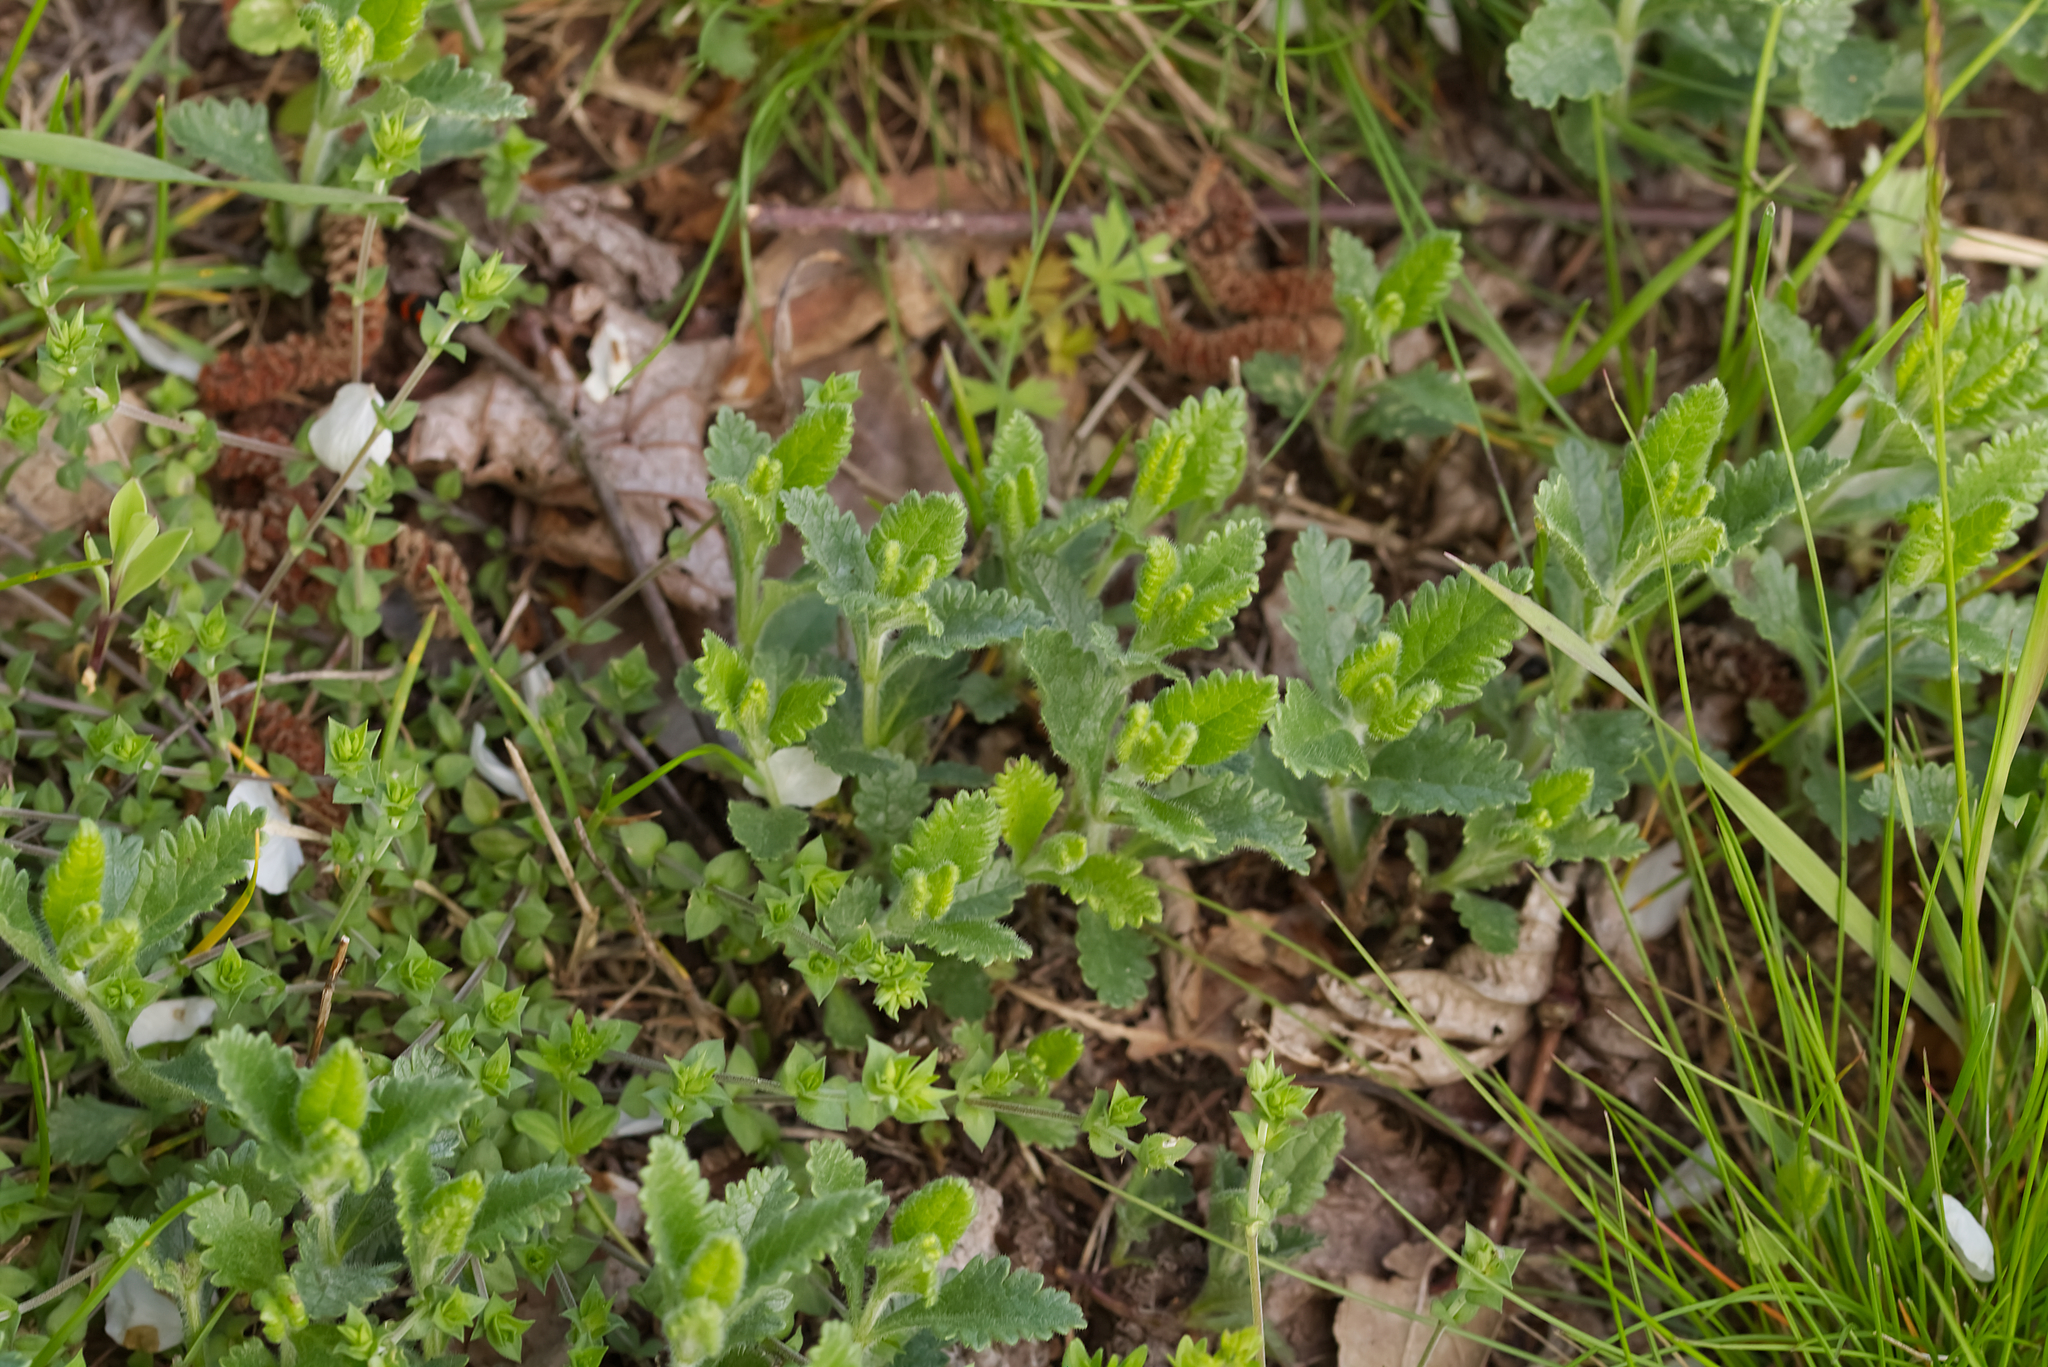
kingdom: Plantae
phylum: Tracheophyta
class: Magnoliopsida
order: Lamiales
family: Lamiaceae
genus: Teucrium
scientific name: Teucrium chamaedrys
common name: Wall germander
